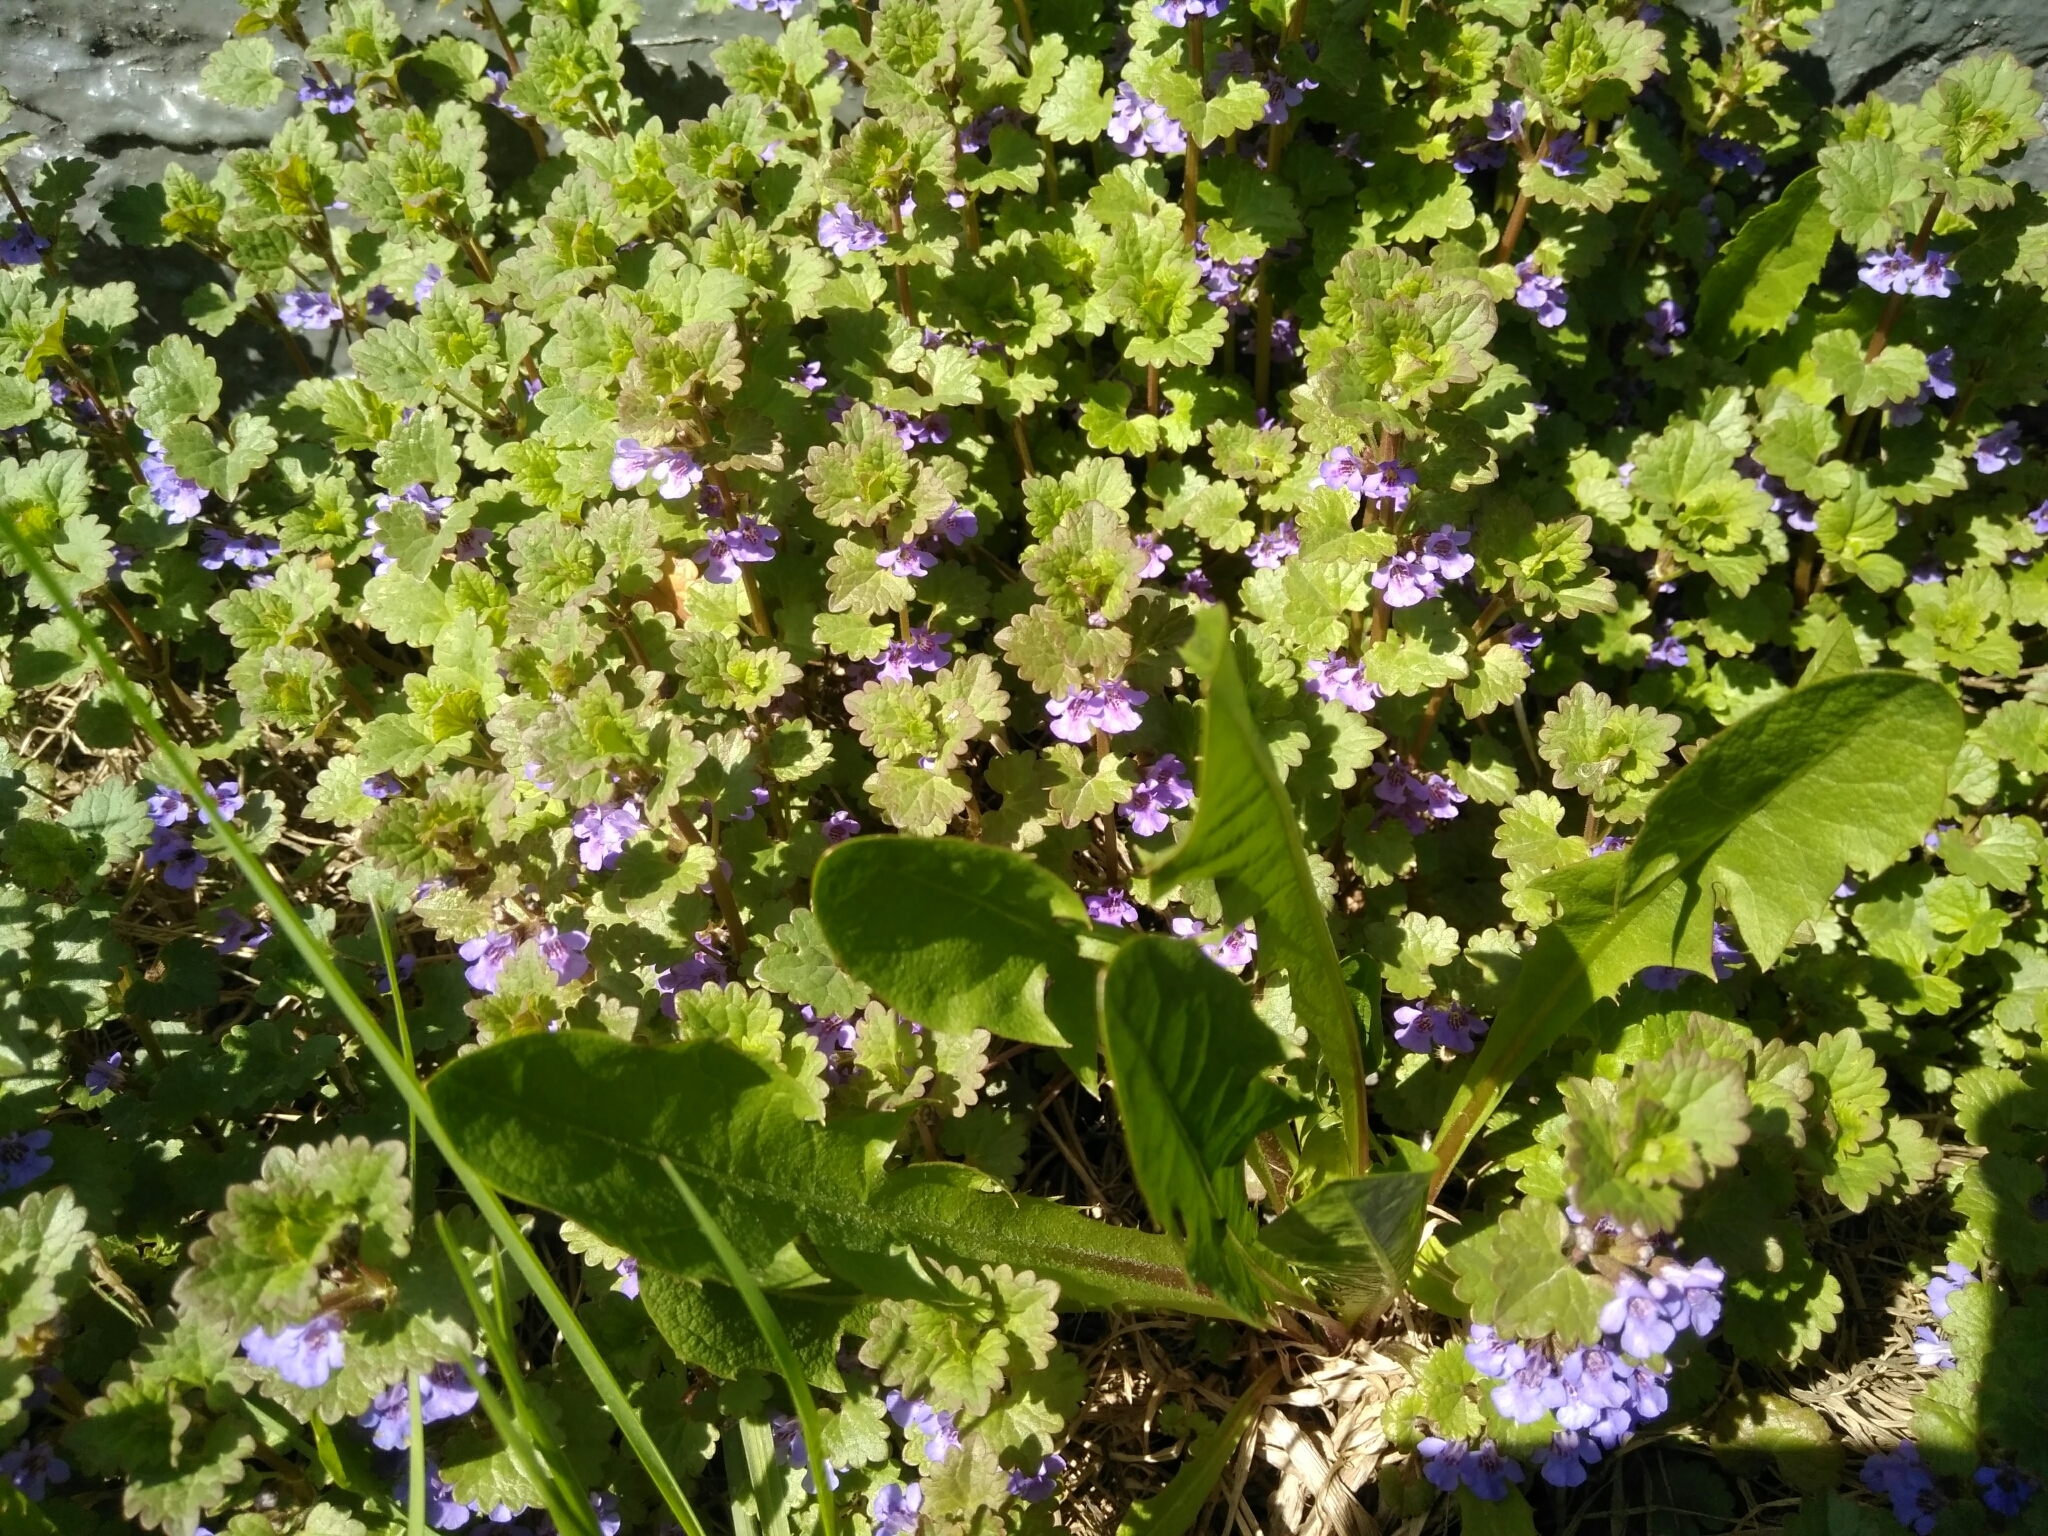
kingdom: Plantae
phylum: Tracheophyta
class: Magnoliopsida
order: Lamiales
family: Lamiaceae
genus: Glechoma
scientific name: Glechoma hederacea
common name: Ground ivy
